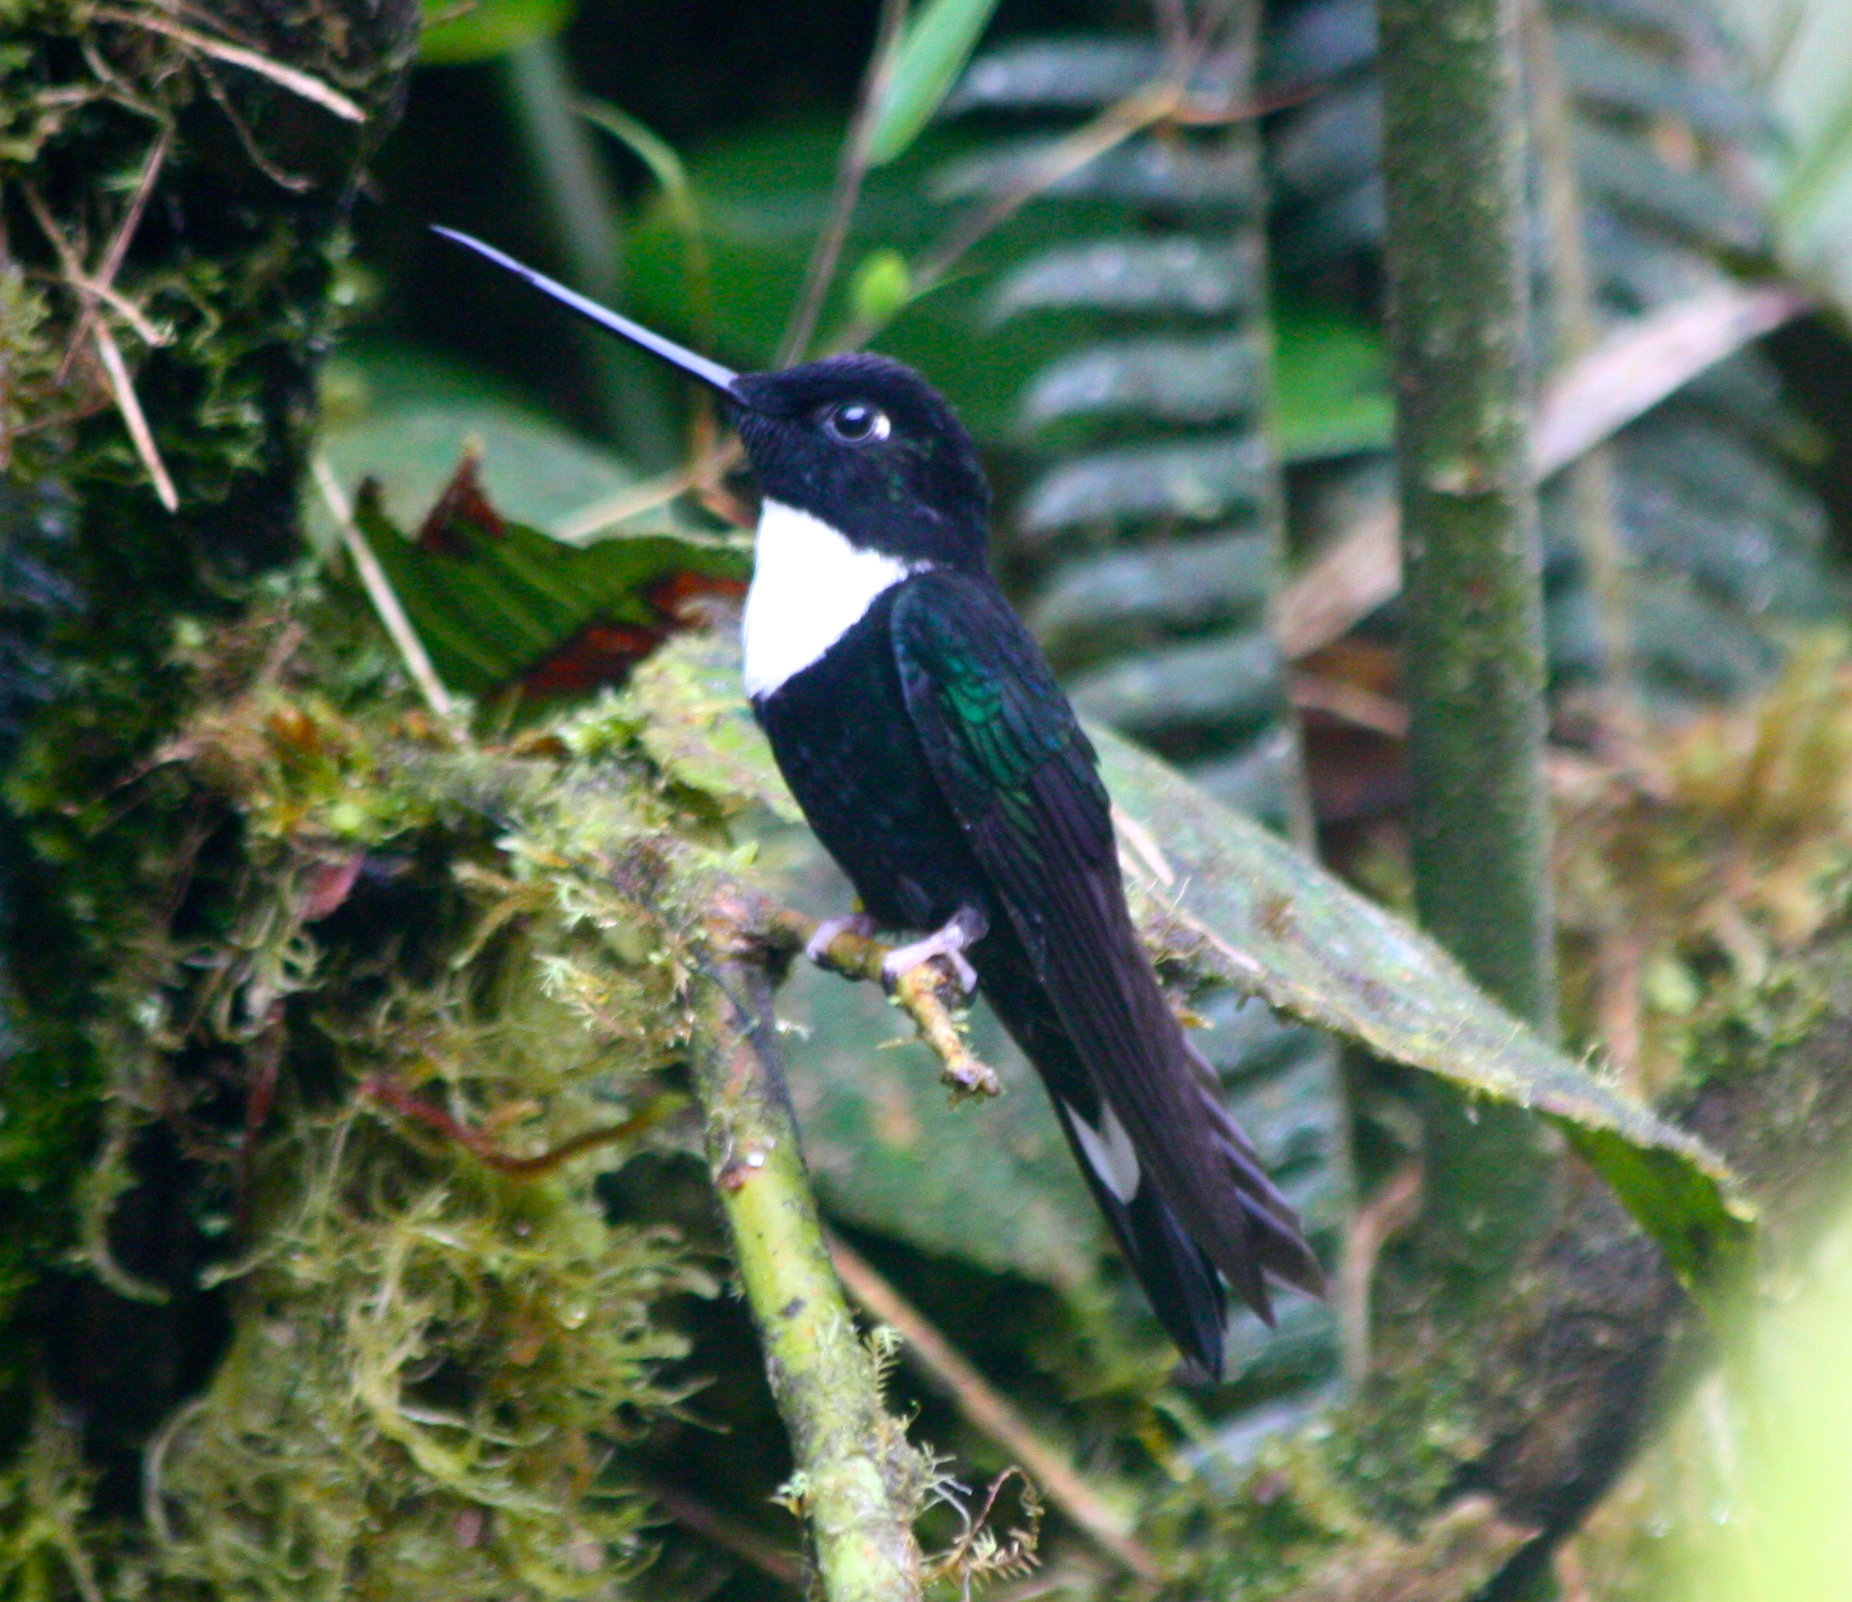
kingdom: Animalia
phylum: Chordata
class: Aves
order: Apodiformes
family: Trochilidae
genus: Coeligena
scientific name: Coeligena torquata
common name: Collared inca
